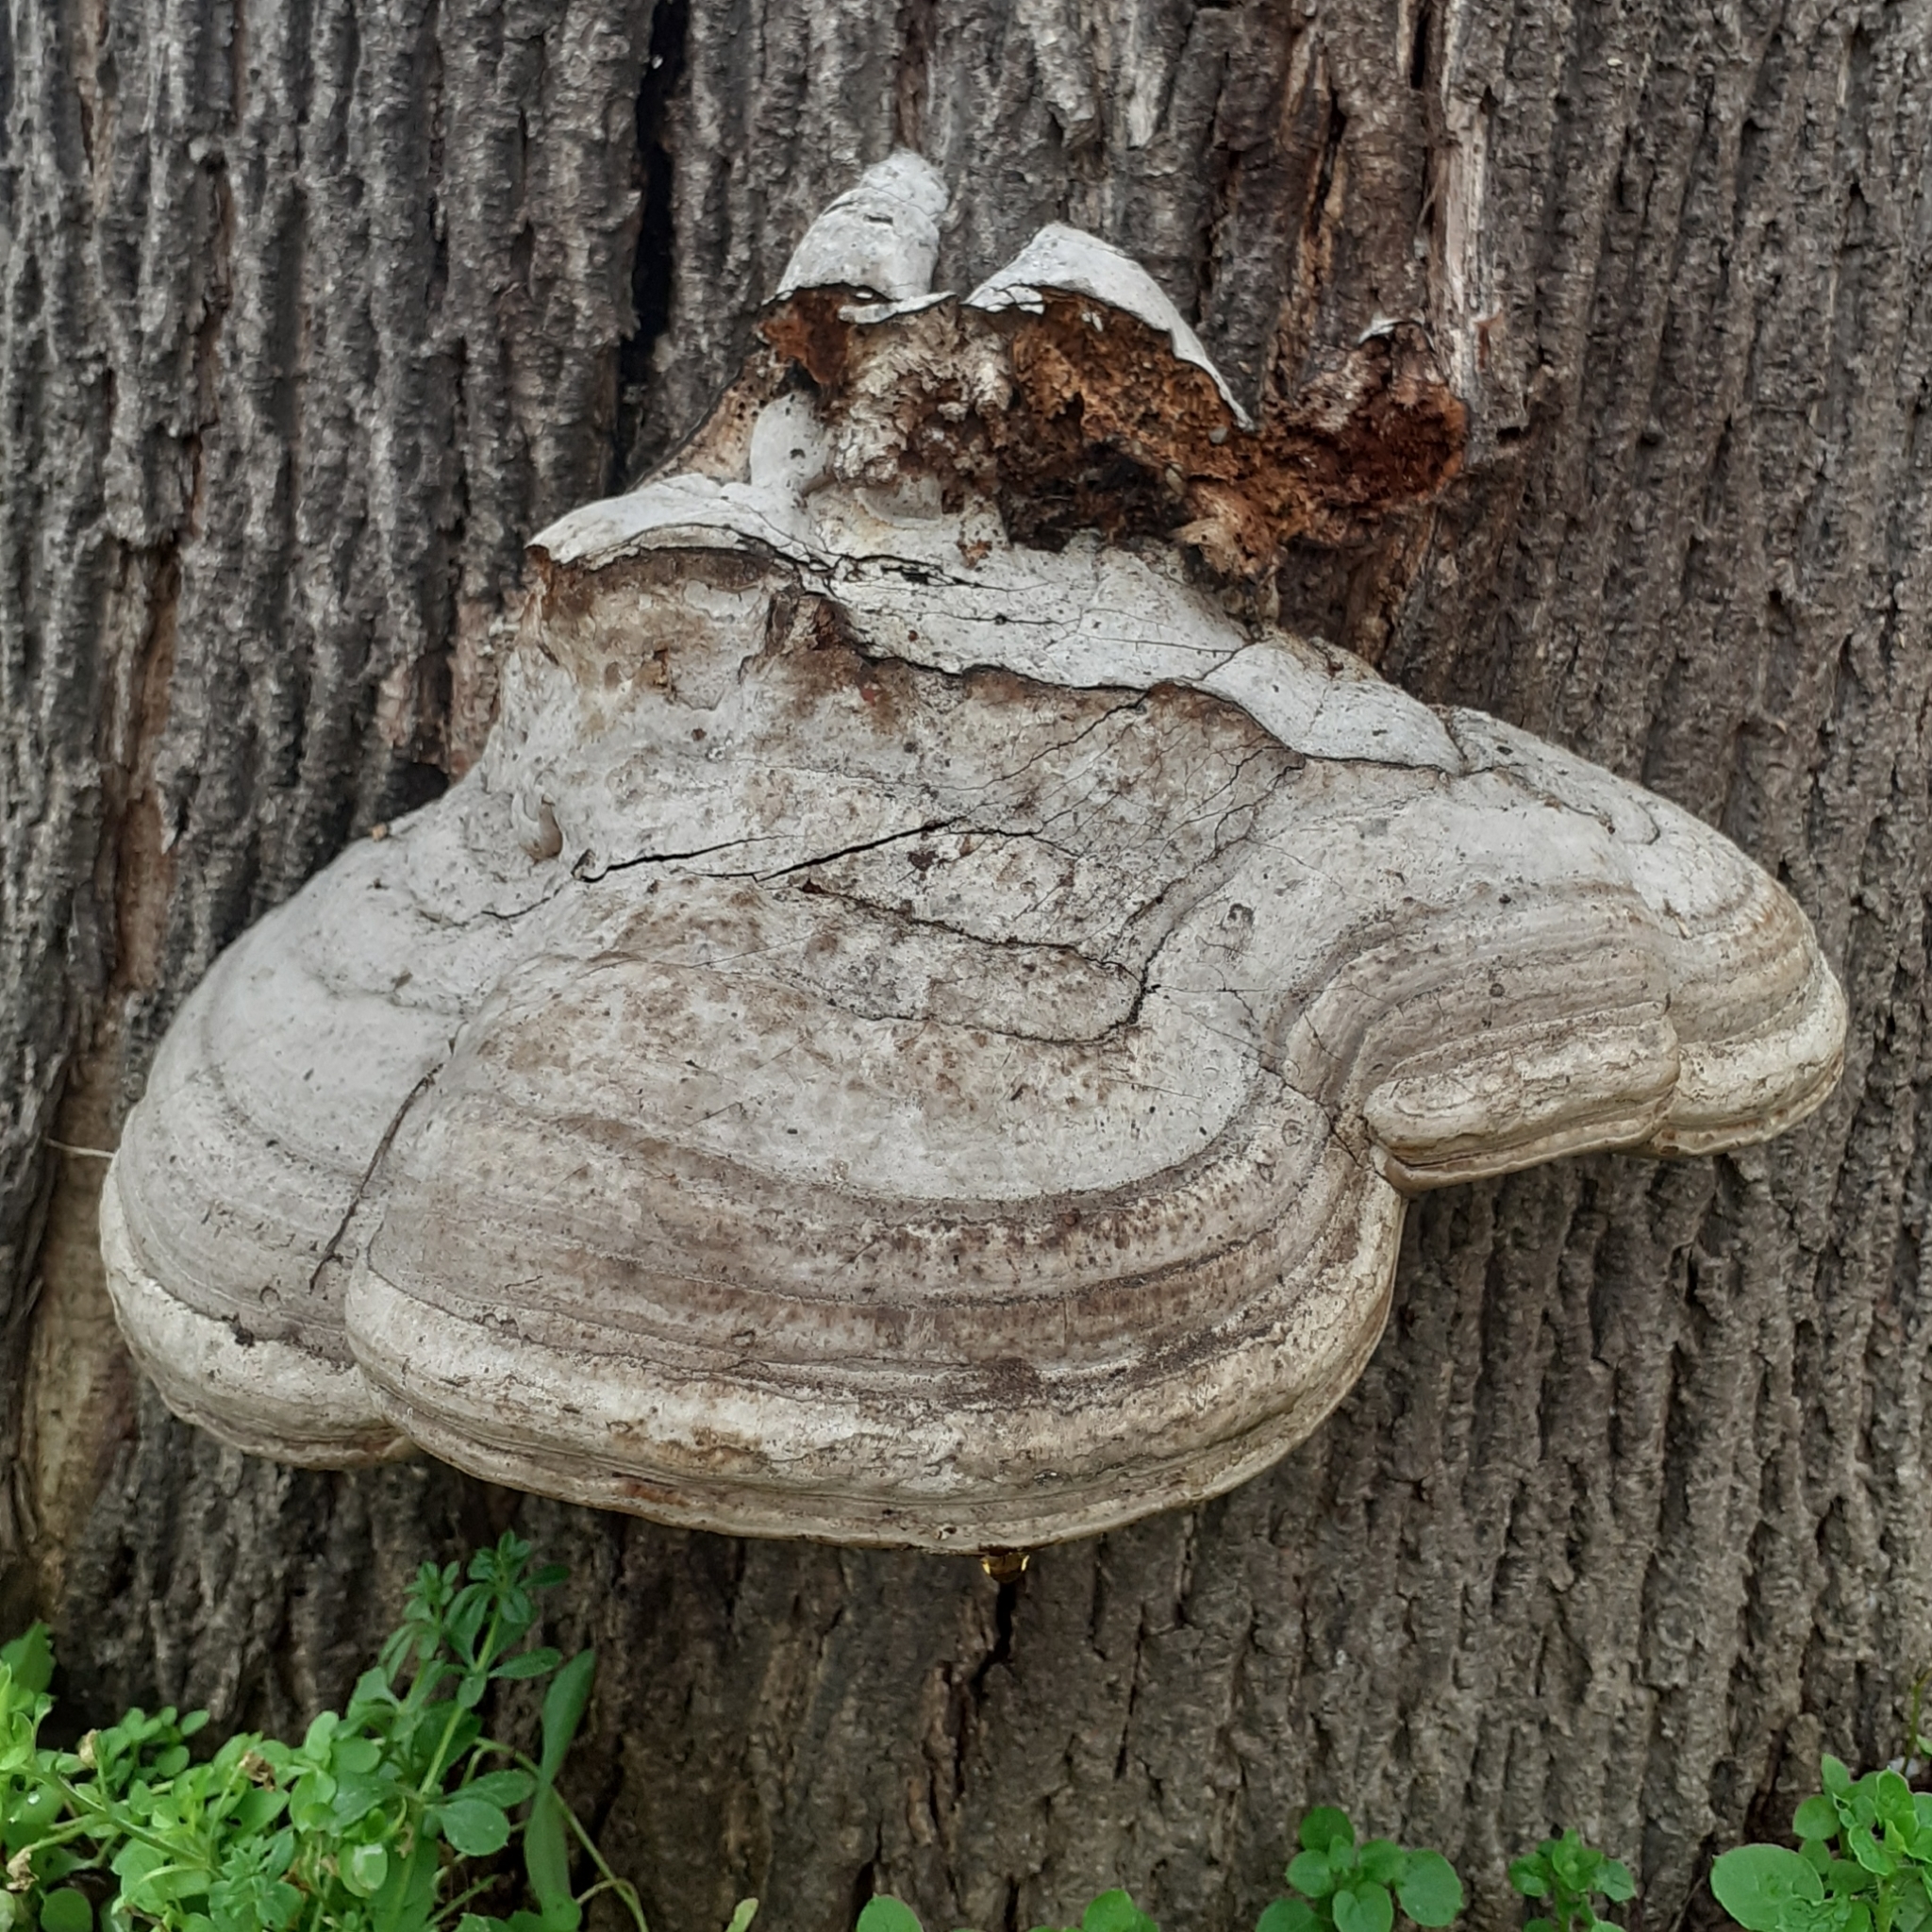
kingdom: Fungi
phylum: Basidiomycota
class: Agaricomycetes
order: Polyporales
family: Polyporaceae
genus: Fomes
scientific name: Fomes fomentarius
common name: Hoof fungus
